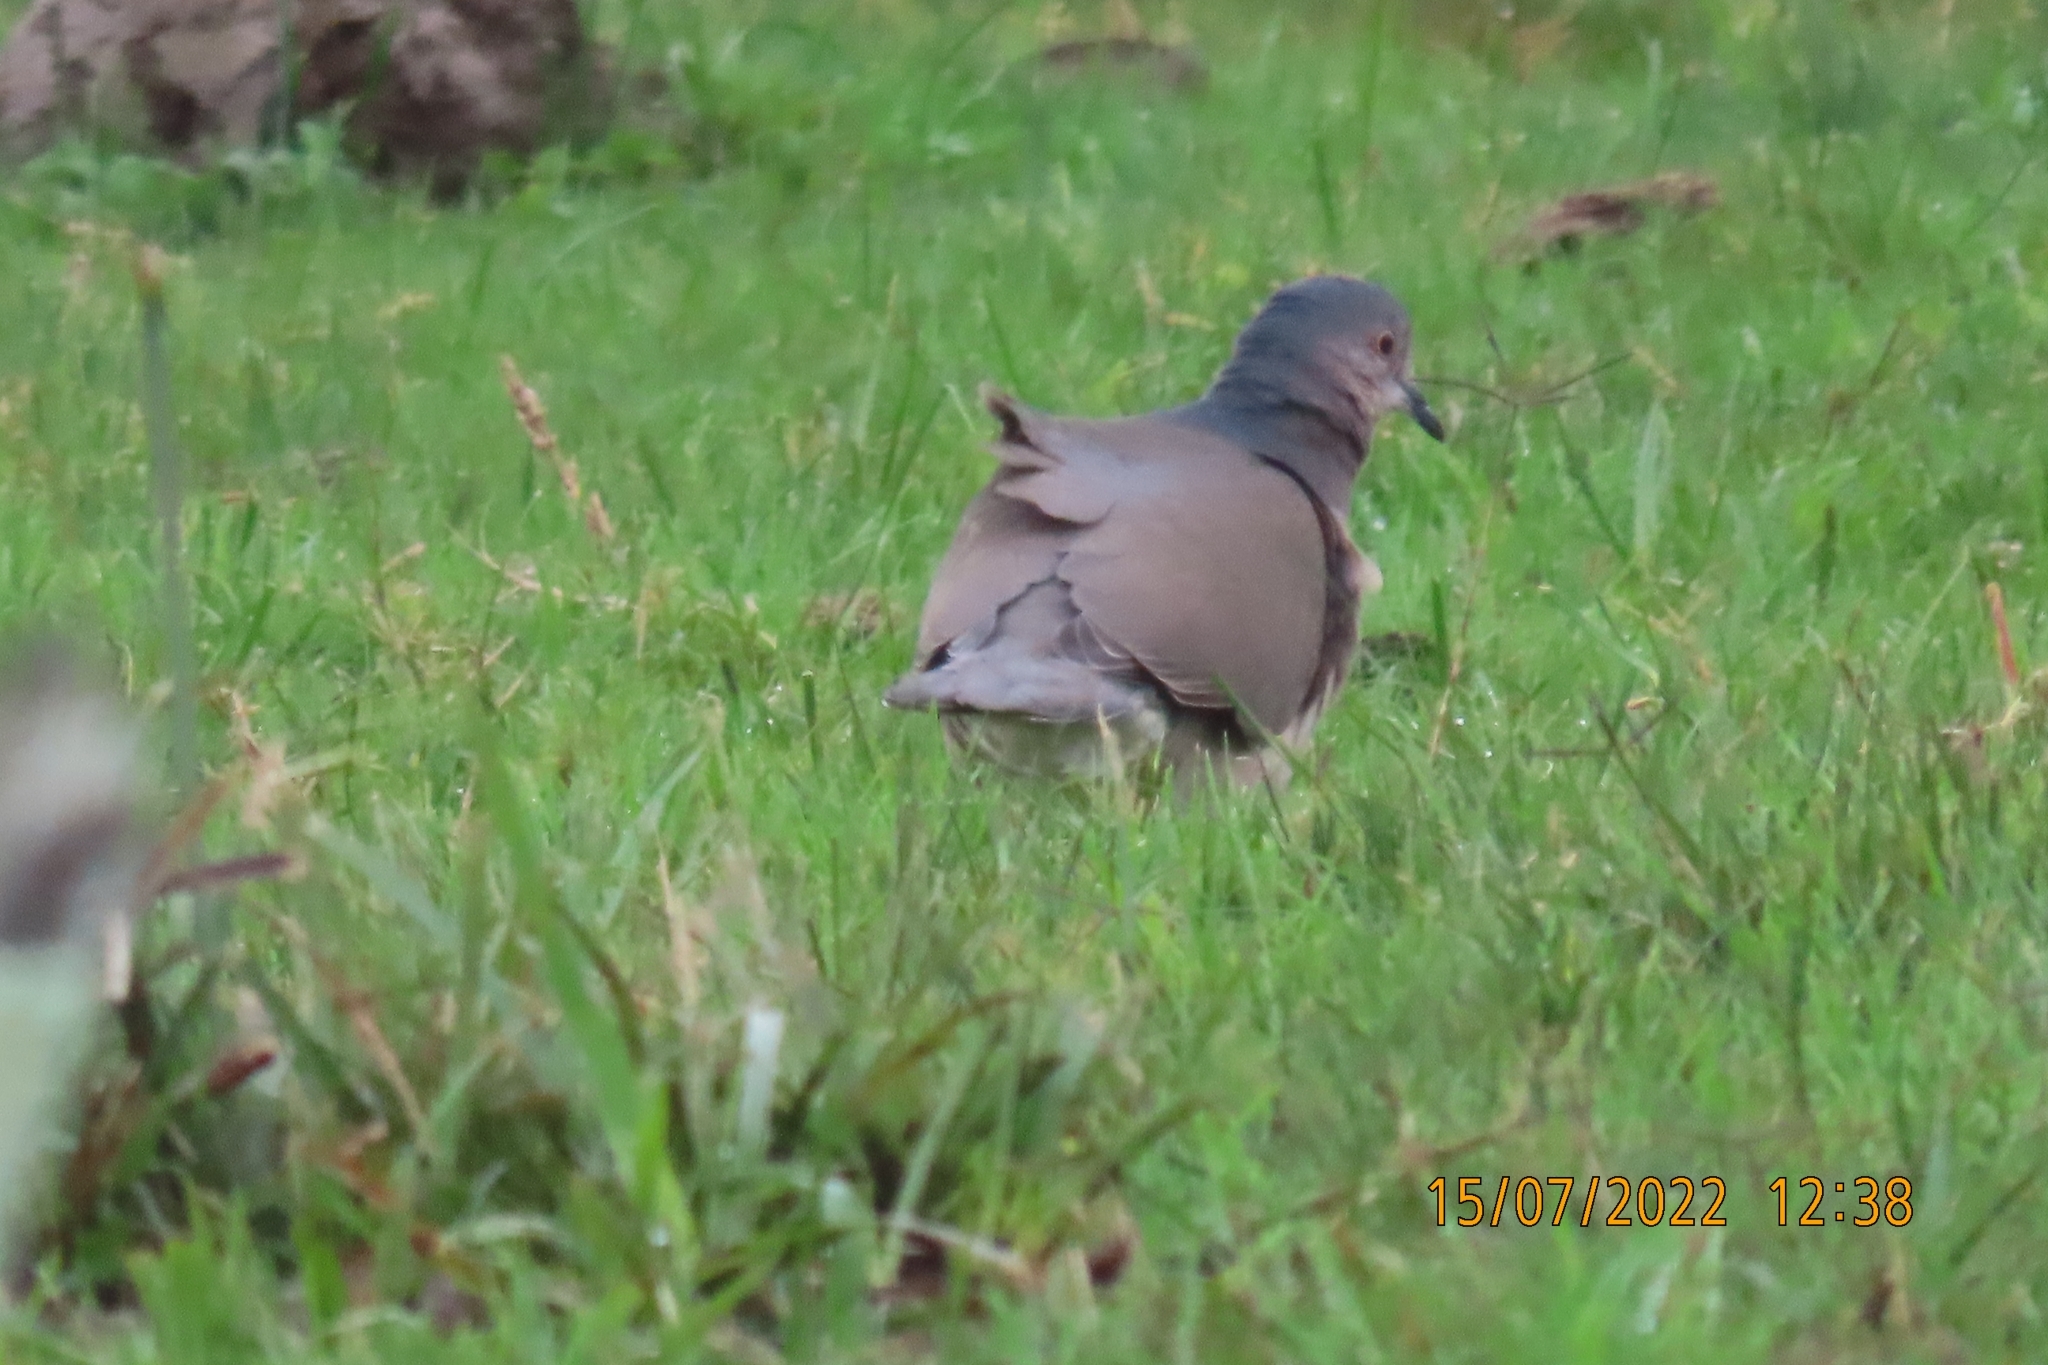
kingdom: Animalia
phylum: Chordata
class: Aves
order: Columbiformes
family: Columbidae
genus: Leptotila
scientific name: Leptotila verreauxi
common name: White-tipped dove
